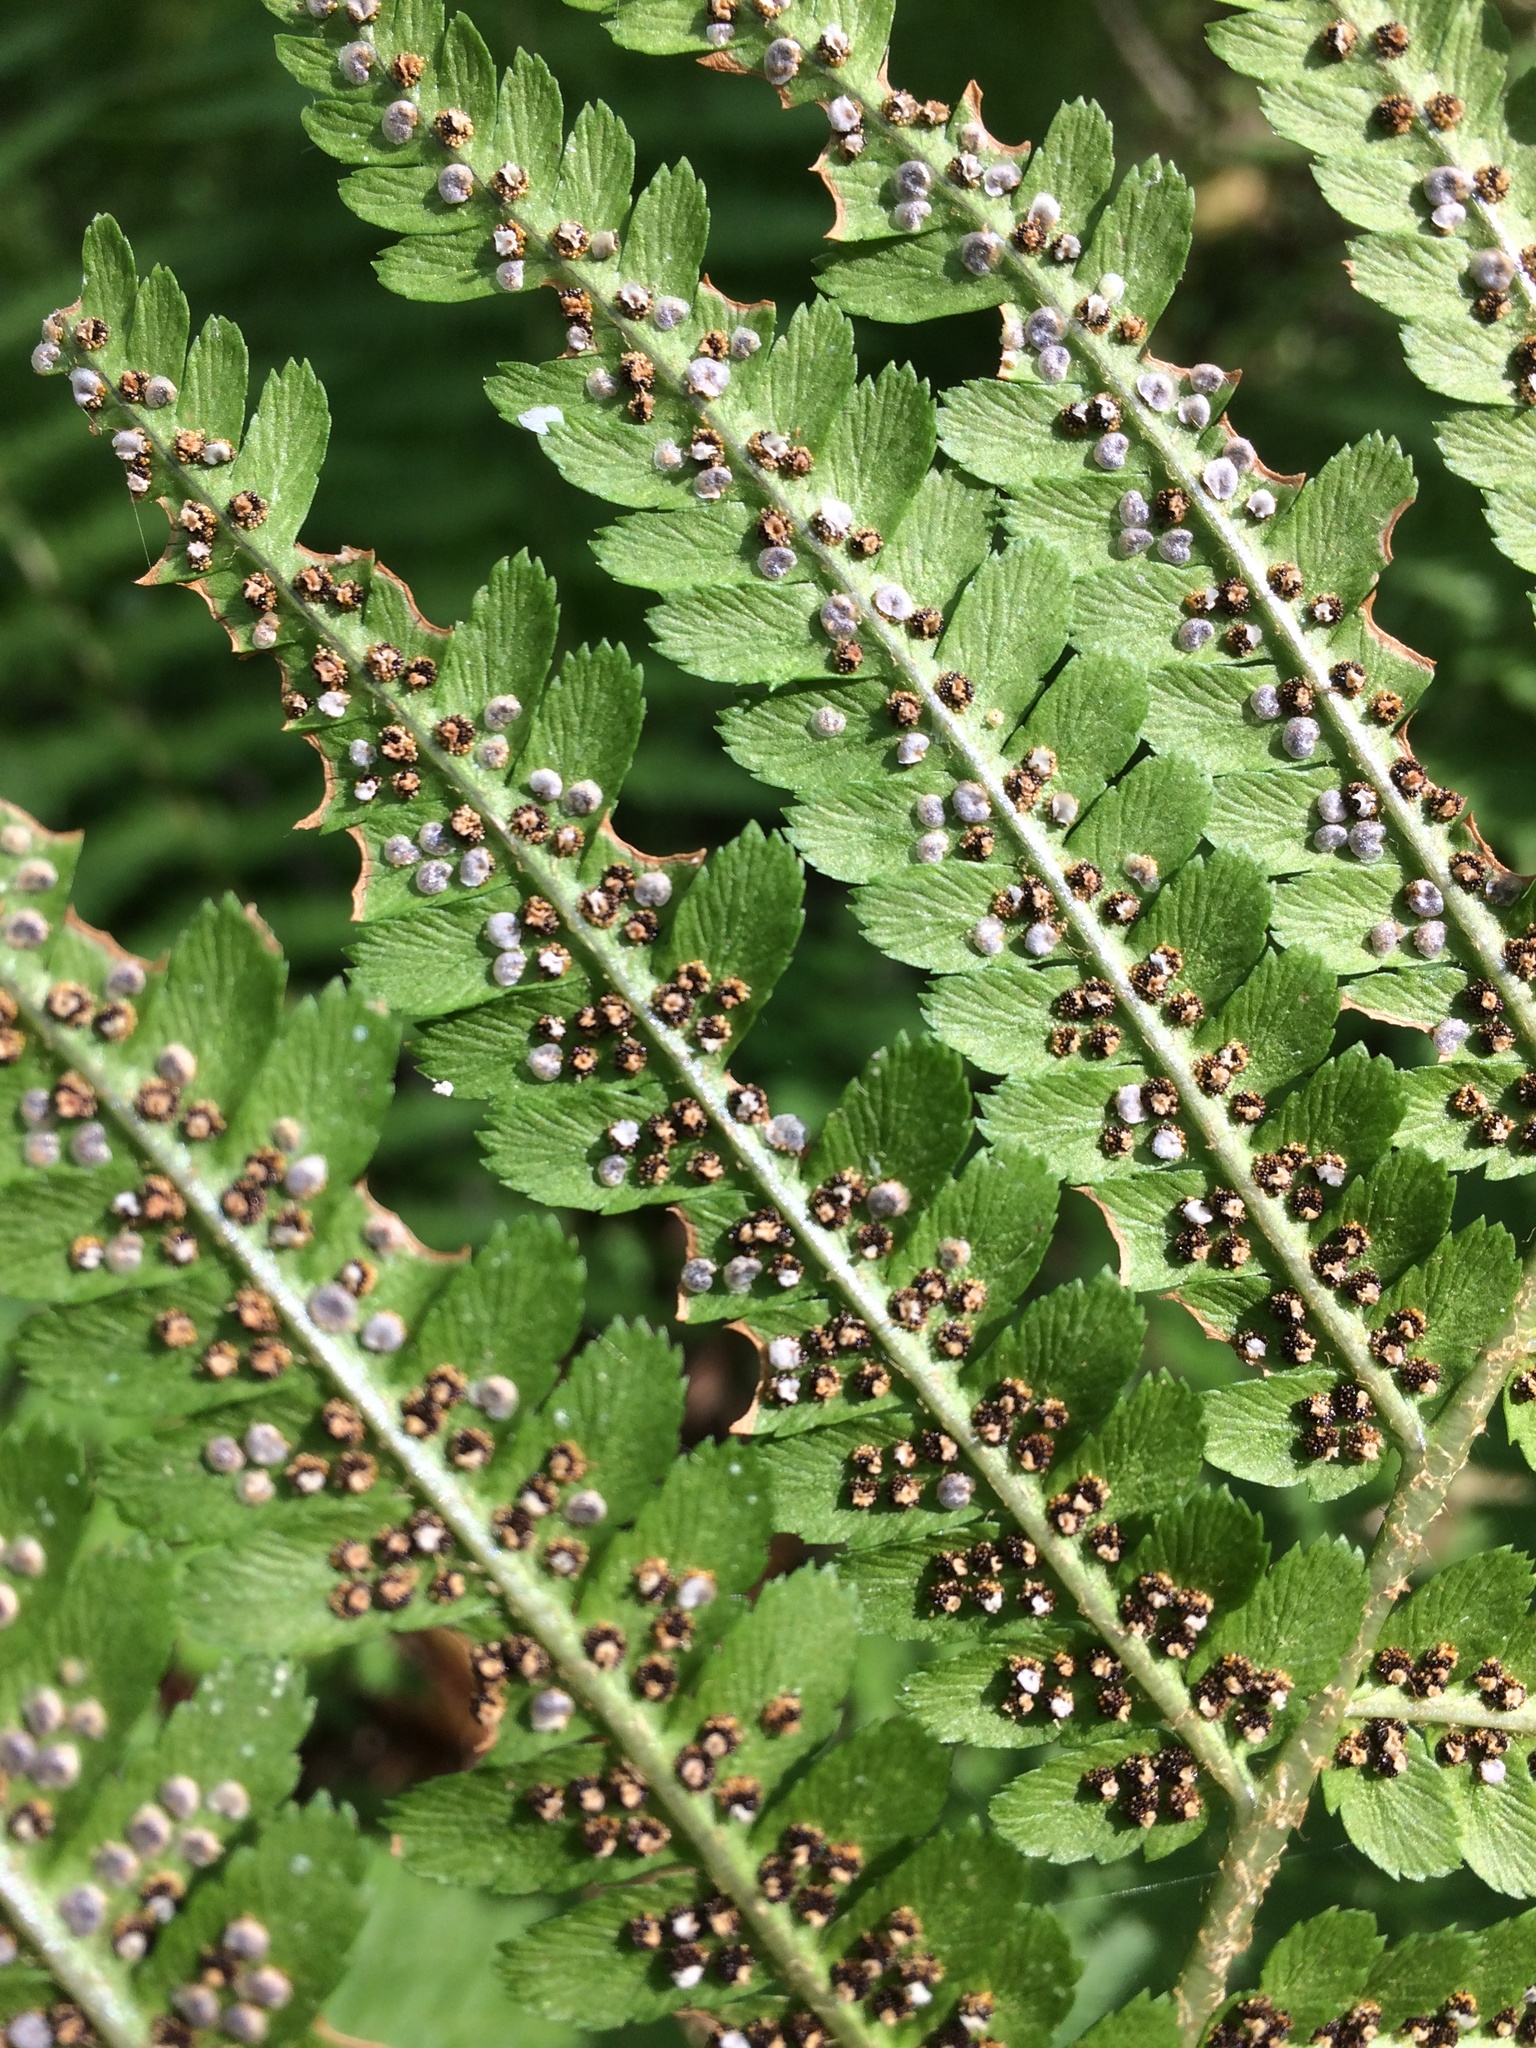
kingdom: Plantae
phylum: Tracheophyta
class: Polypodiopsida
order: Polypodiales
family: Dryopteridaceae
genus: Dryopteris
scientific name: Dryopteris filix-mas
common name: Male fern
